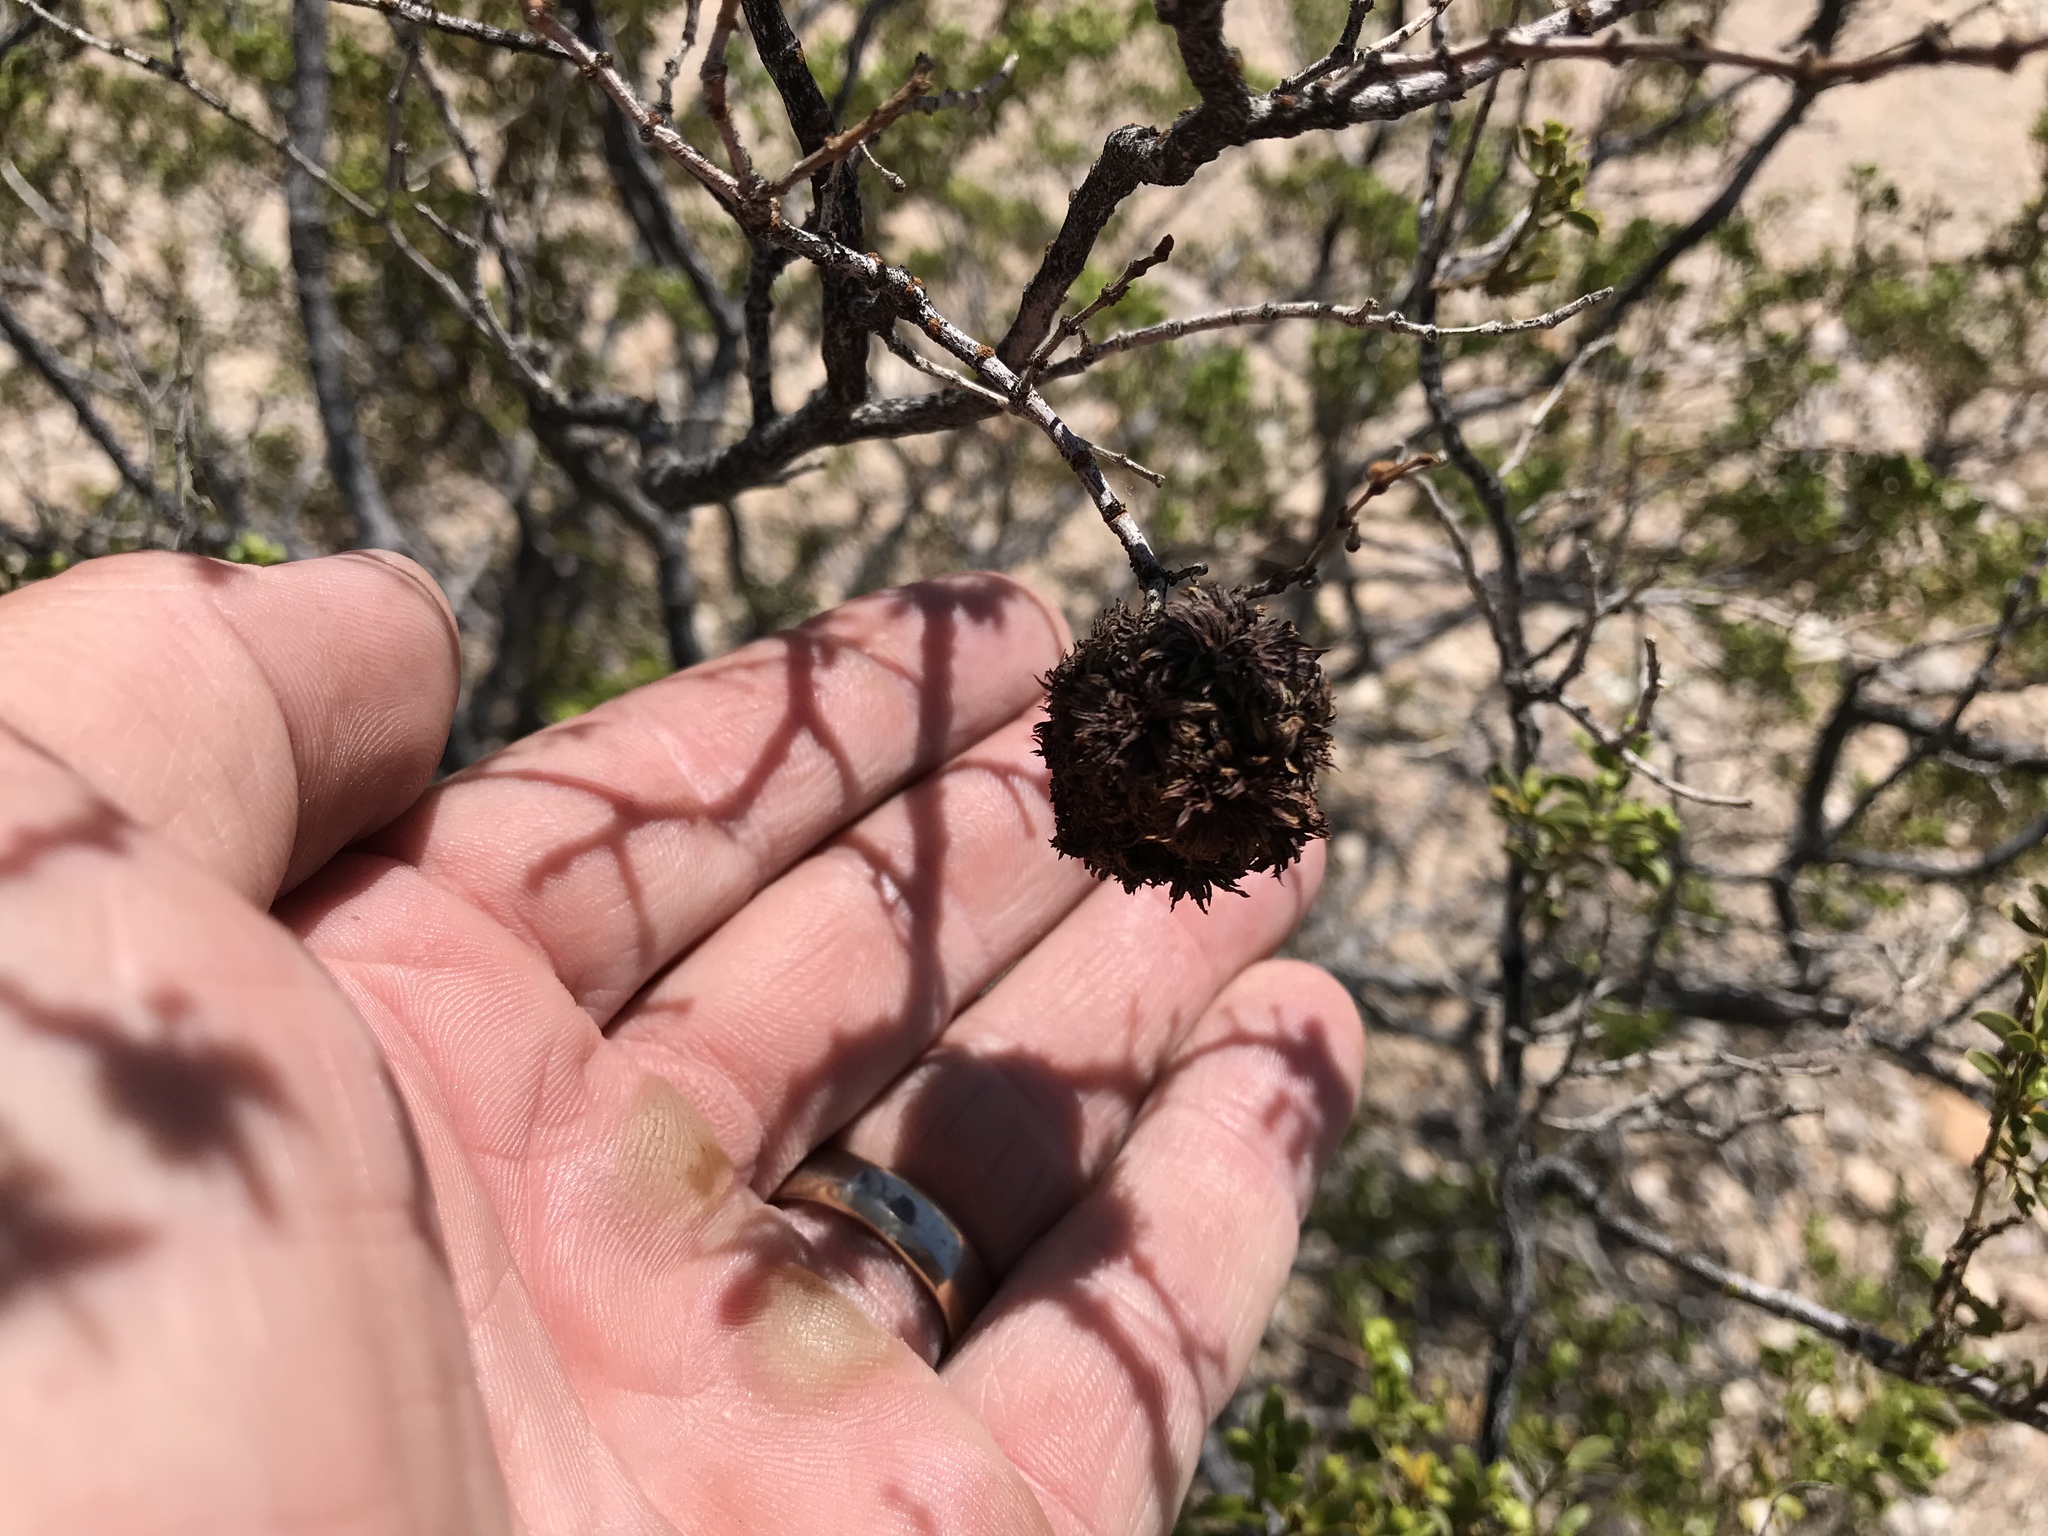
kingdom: Animalia
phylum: Arthropoda
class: Insecta
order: Diptera
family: Cecidomyiidae
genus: Asphondylia
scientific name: Asphondylia auripila
